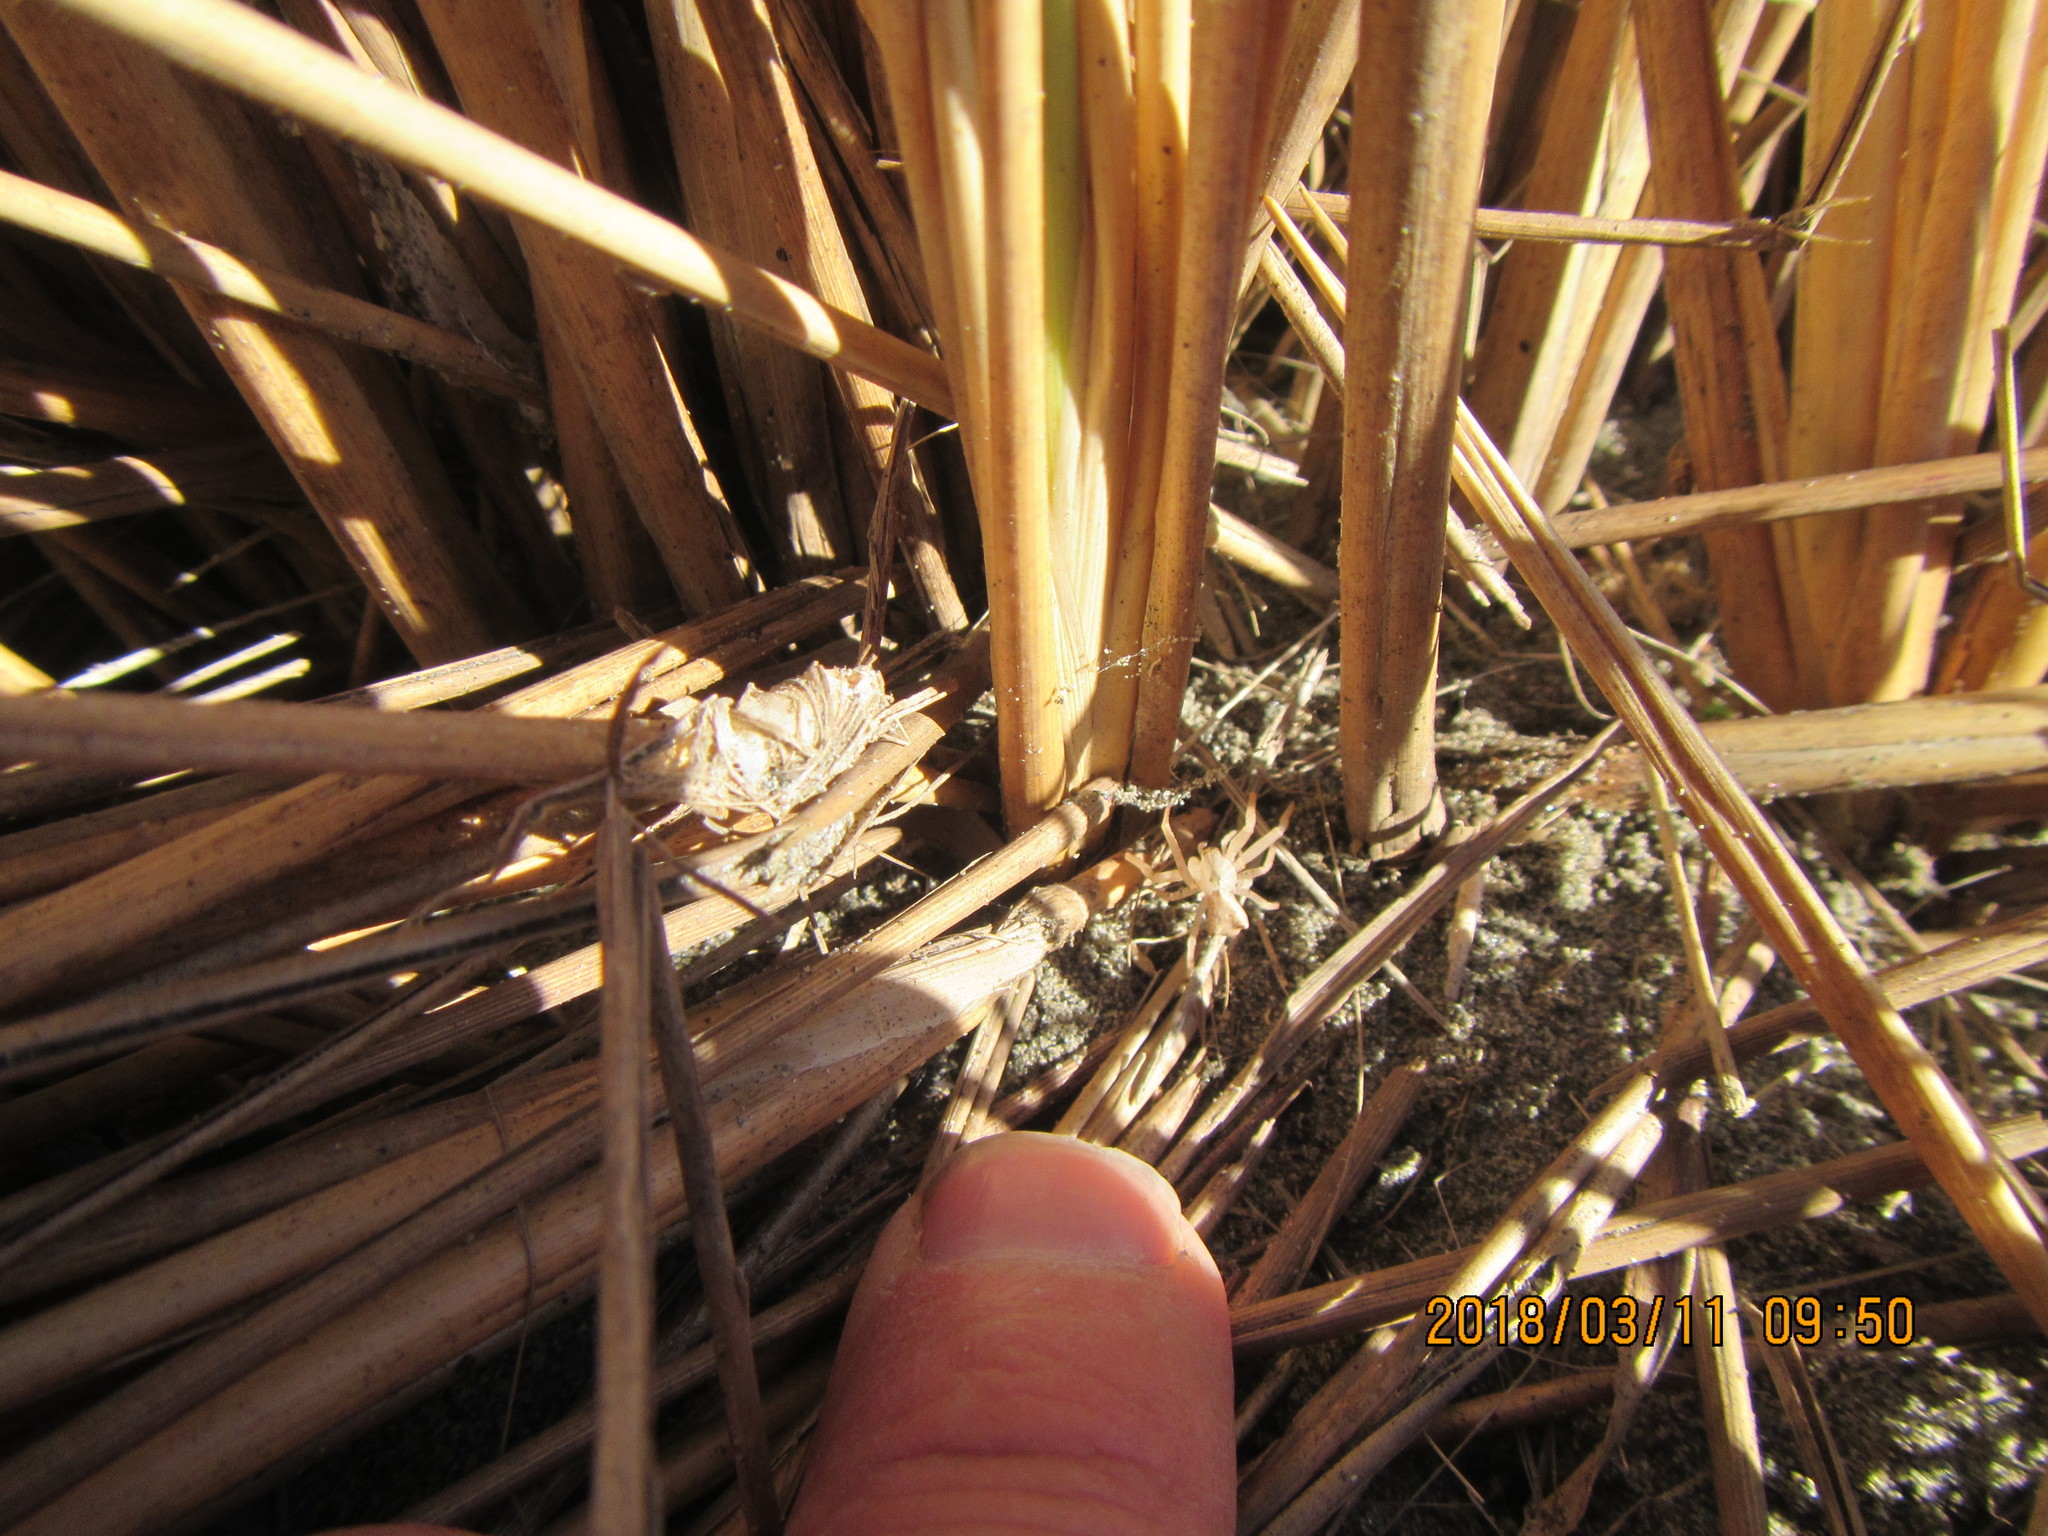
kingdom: Animalia
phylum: Arthropoda
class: Arachnida
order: Araneae
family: Thomisidae
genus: Sidymella
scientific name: Sidymella trapezia
